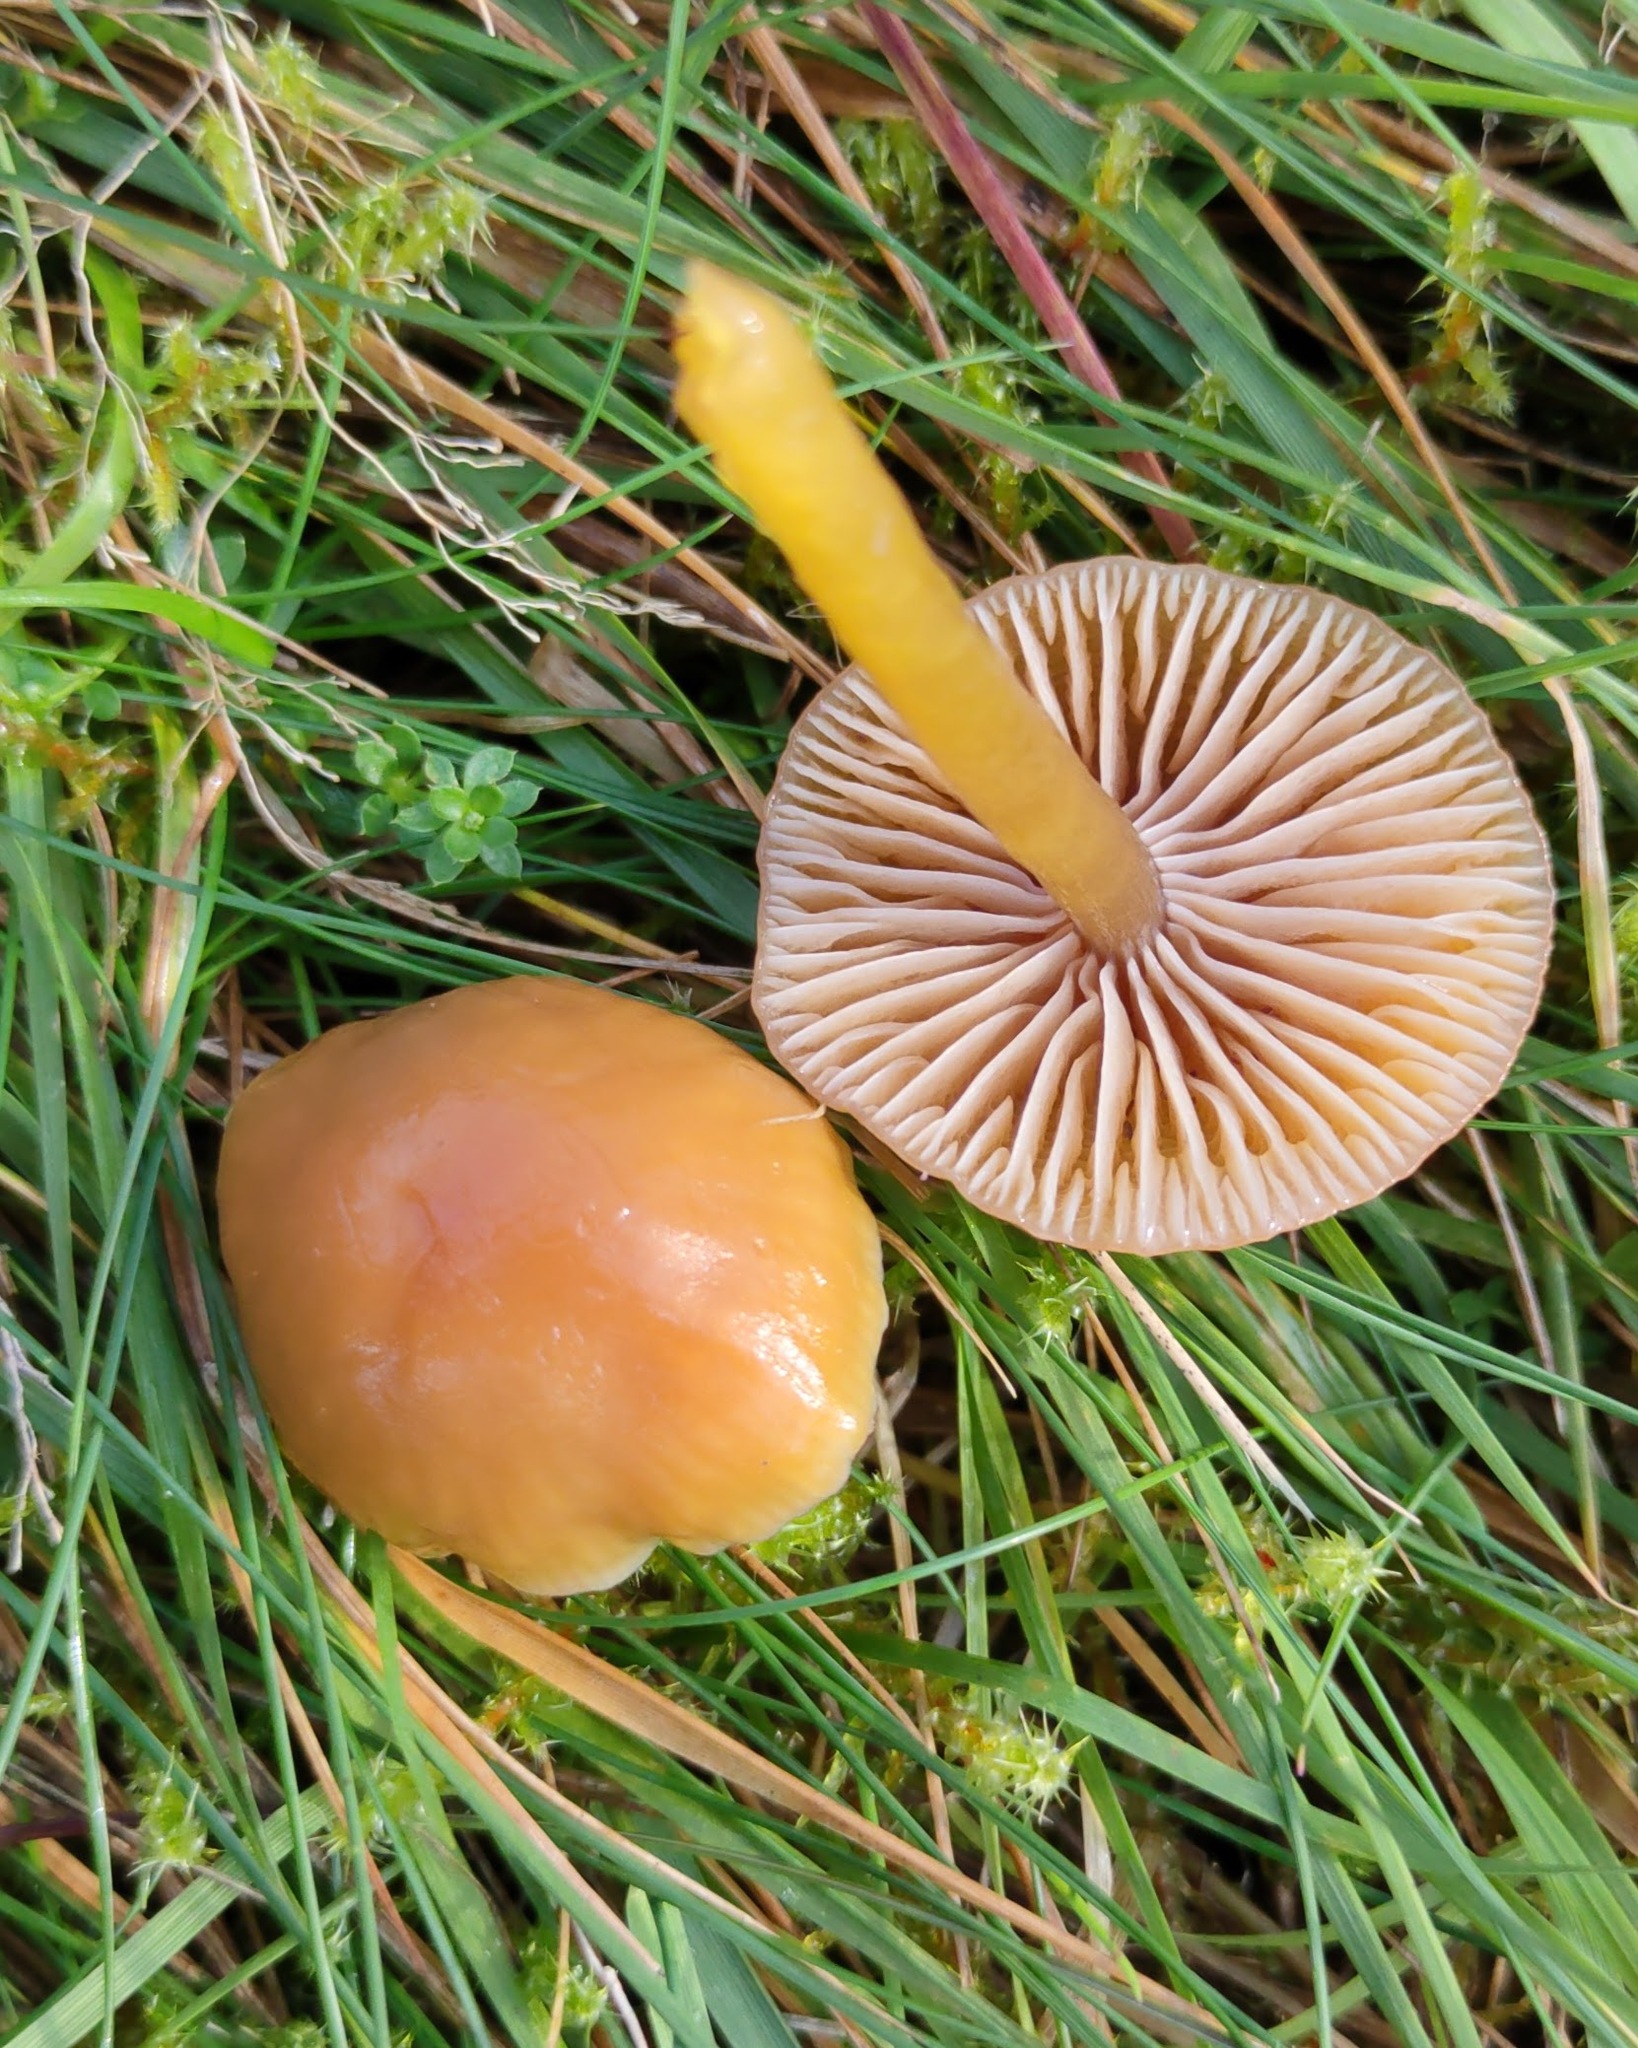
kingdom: Fungi
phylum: Basidiomycota
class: Agaricomycetes
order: Agaricales
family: Hygrophoraceae
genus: Gliophorus
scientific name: Gliophorus laetus
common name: Heath waxcap
